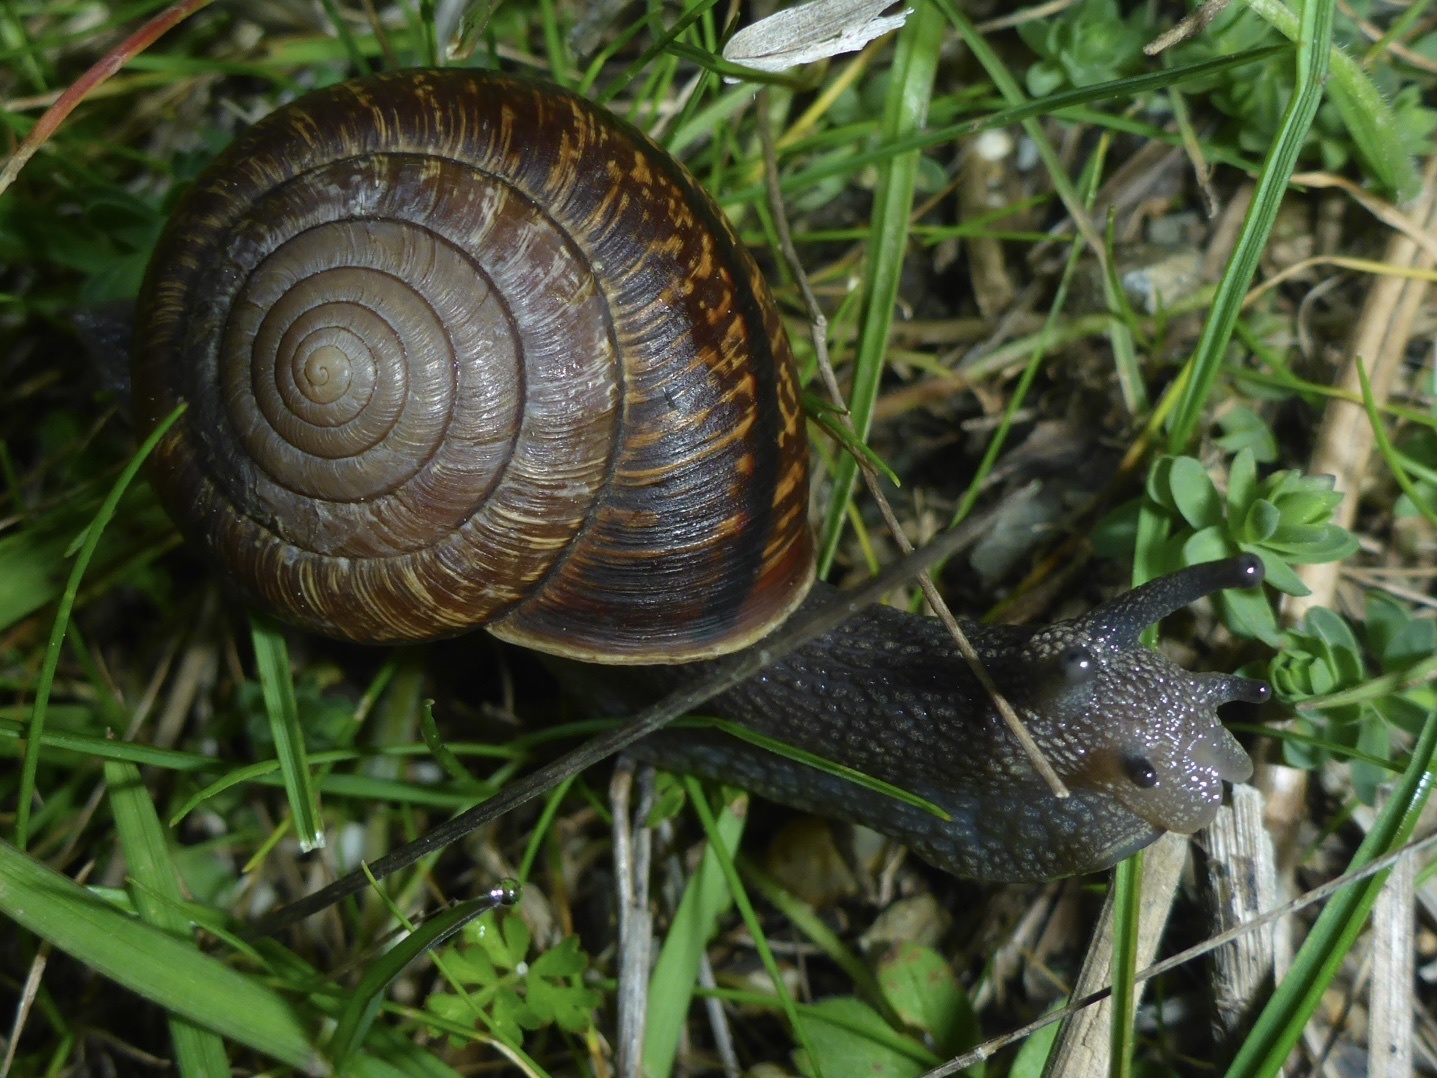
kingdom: Animalia
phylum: Mollusca
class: Gastropoda
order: Stylommatophora
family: Xanthonychidae
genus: Helminthoglypta
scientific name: Helminthoglypta arrosa
